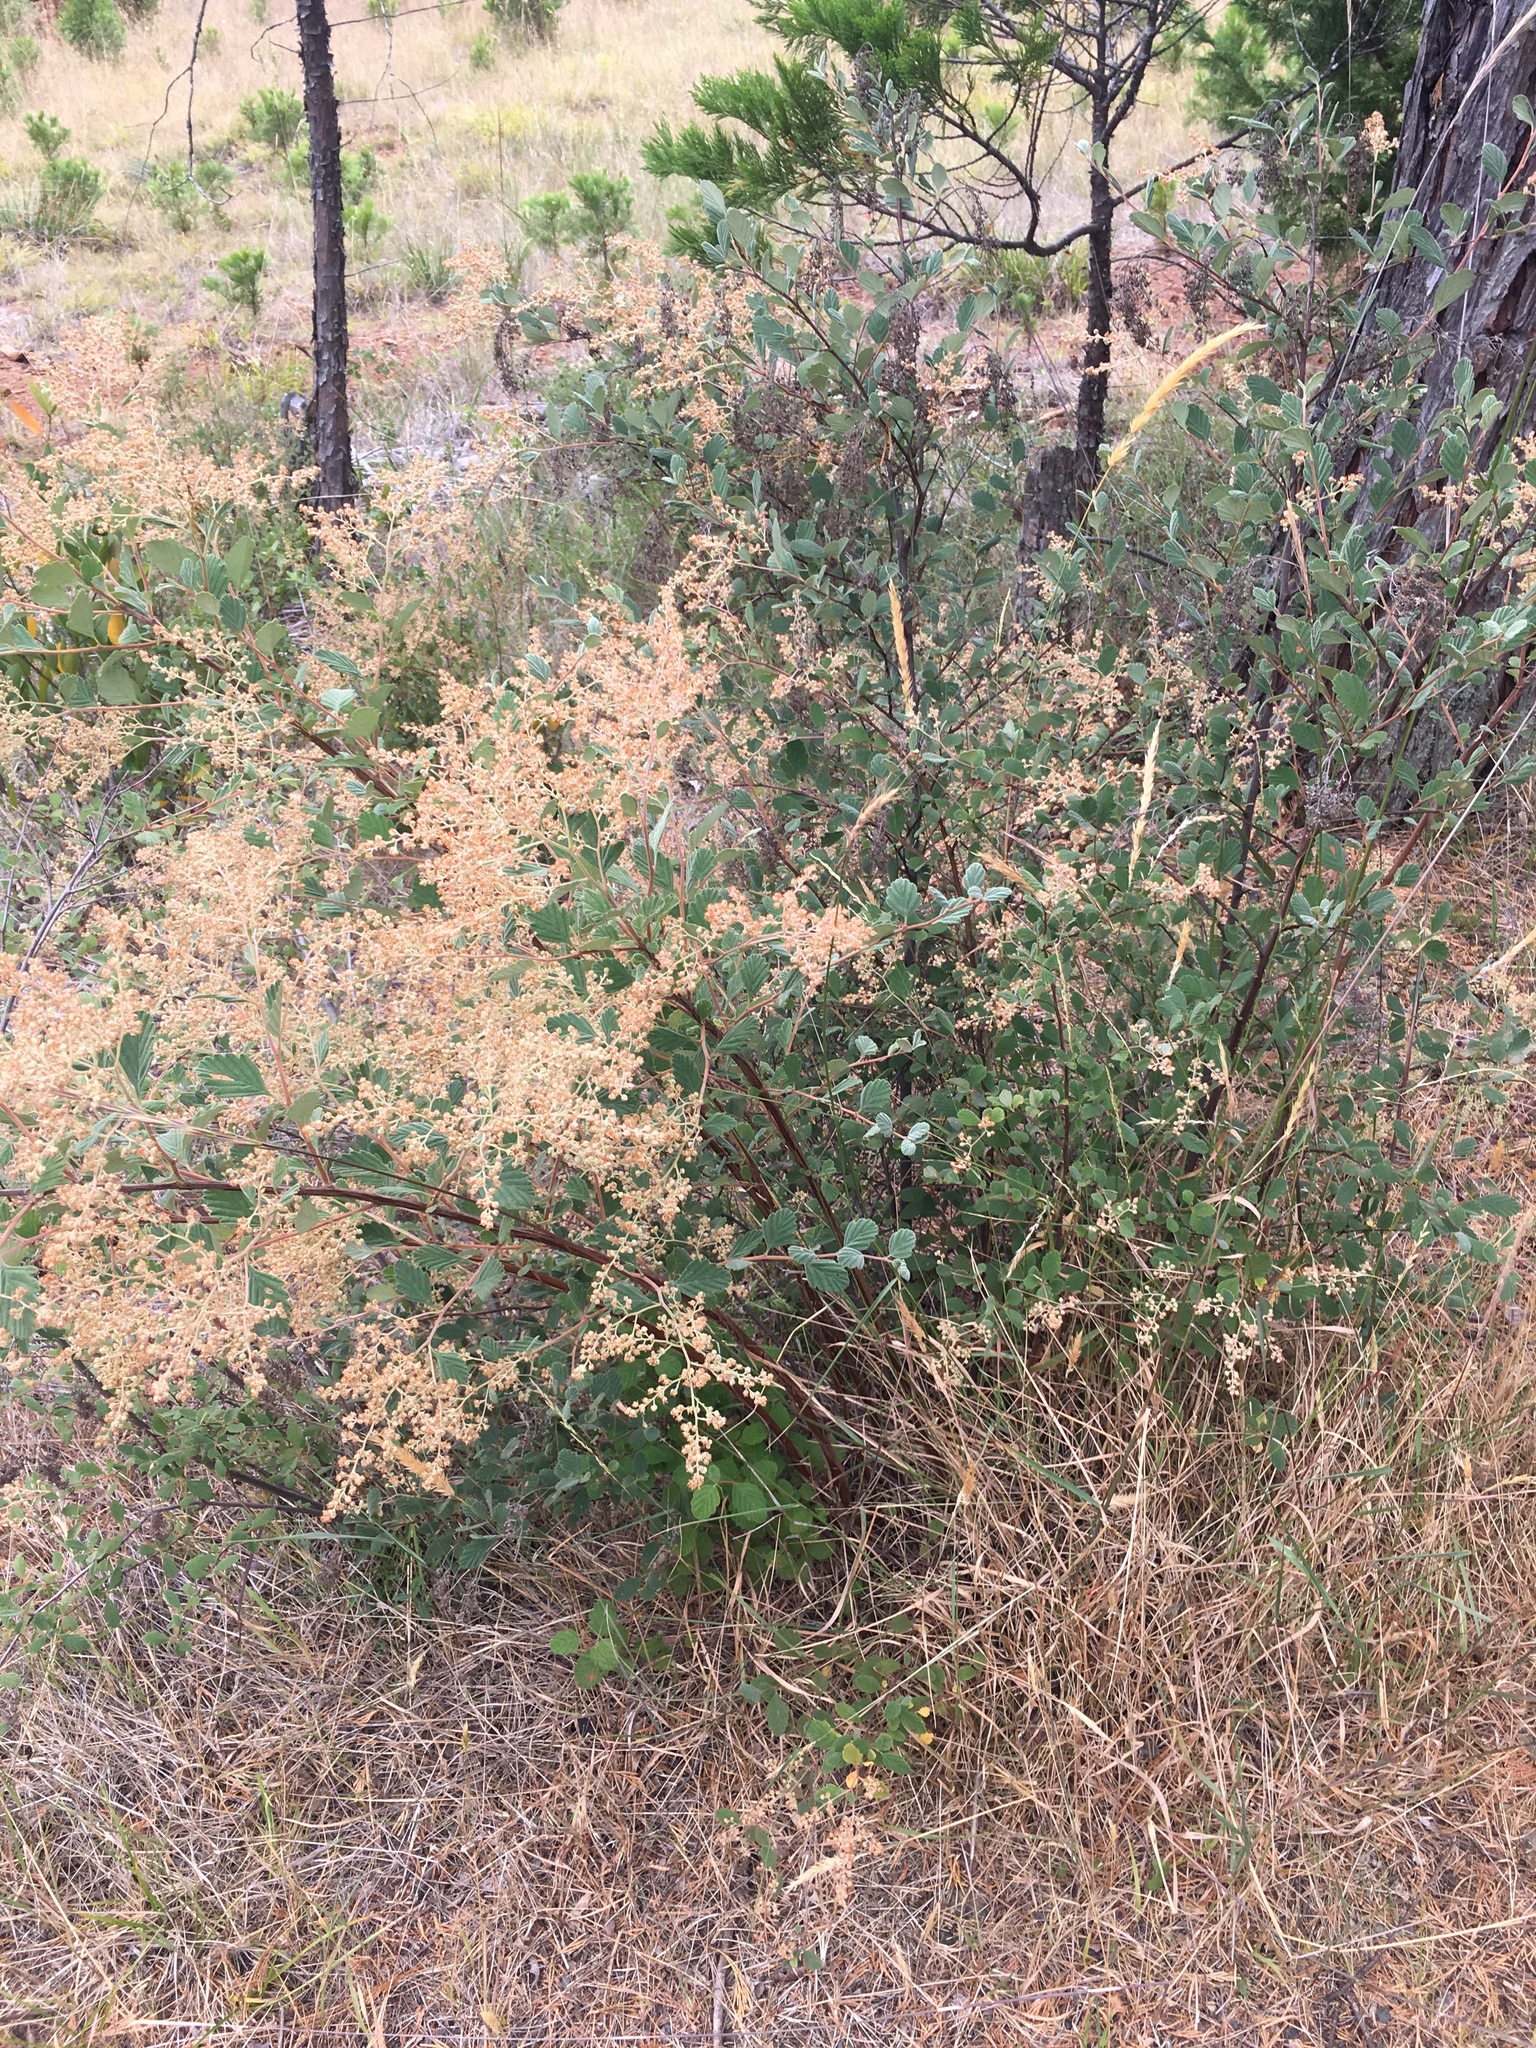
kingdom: Plantae
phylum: Tracheophyta
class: Magnoliopsida
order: Rosales
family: Rosaceae
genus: Holodiscus
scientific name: Holodiscus discolor
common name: Oceanspray
